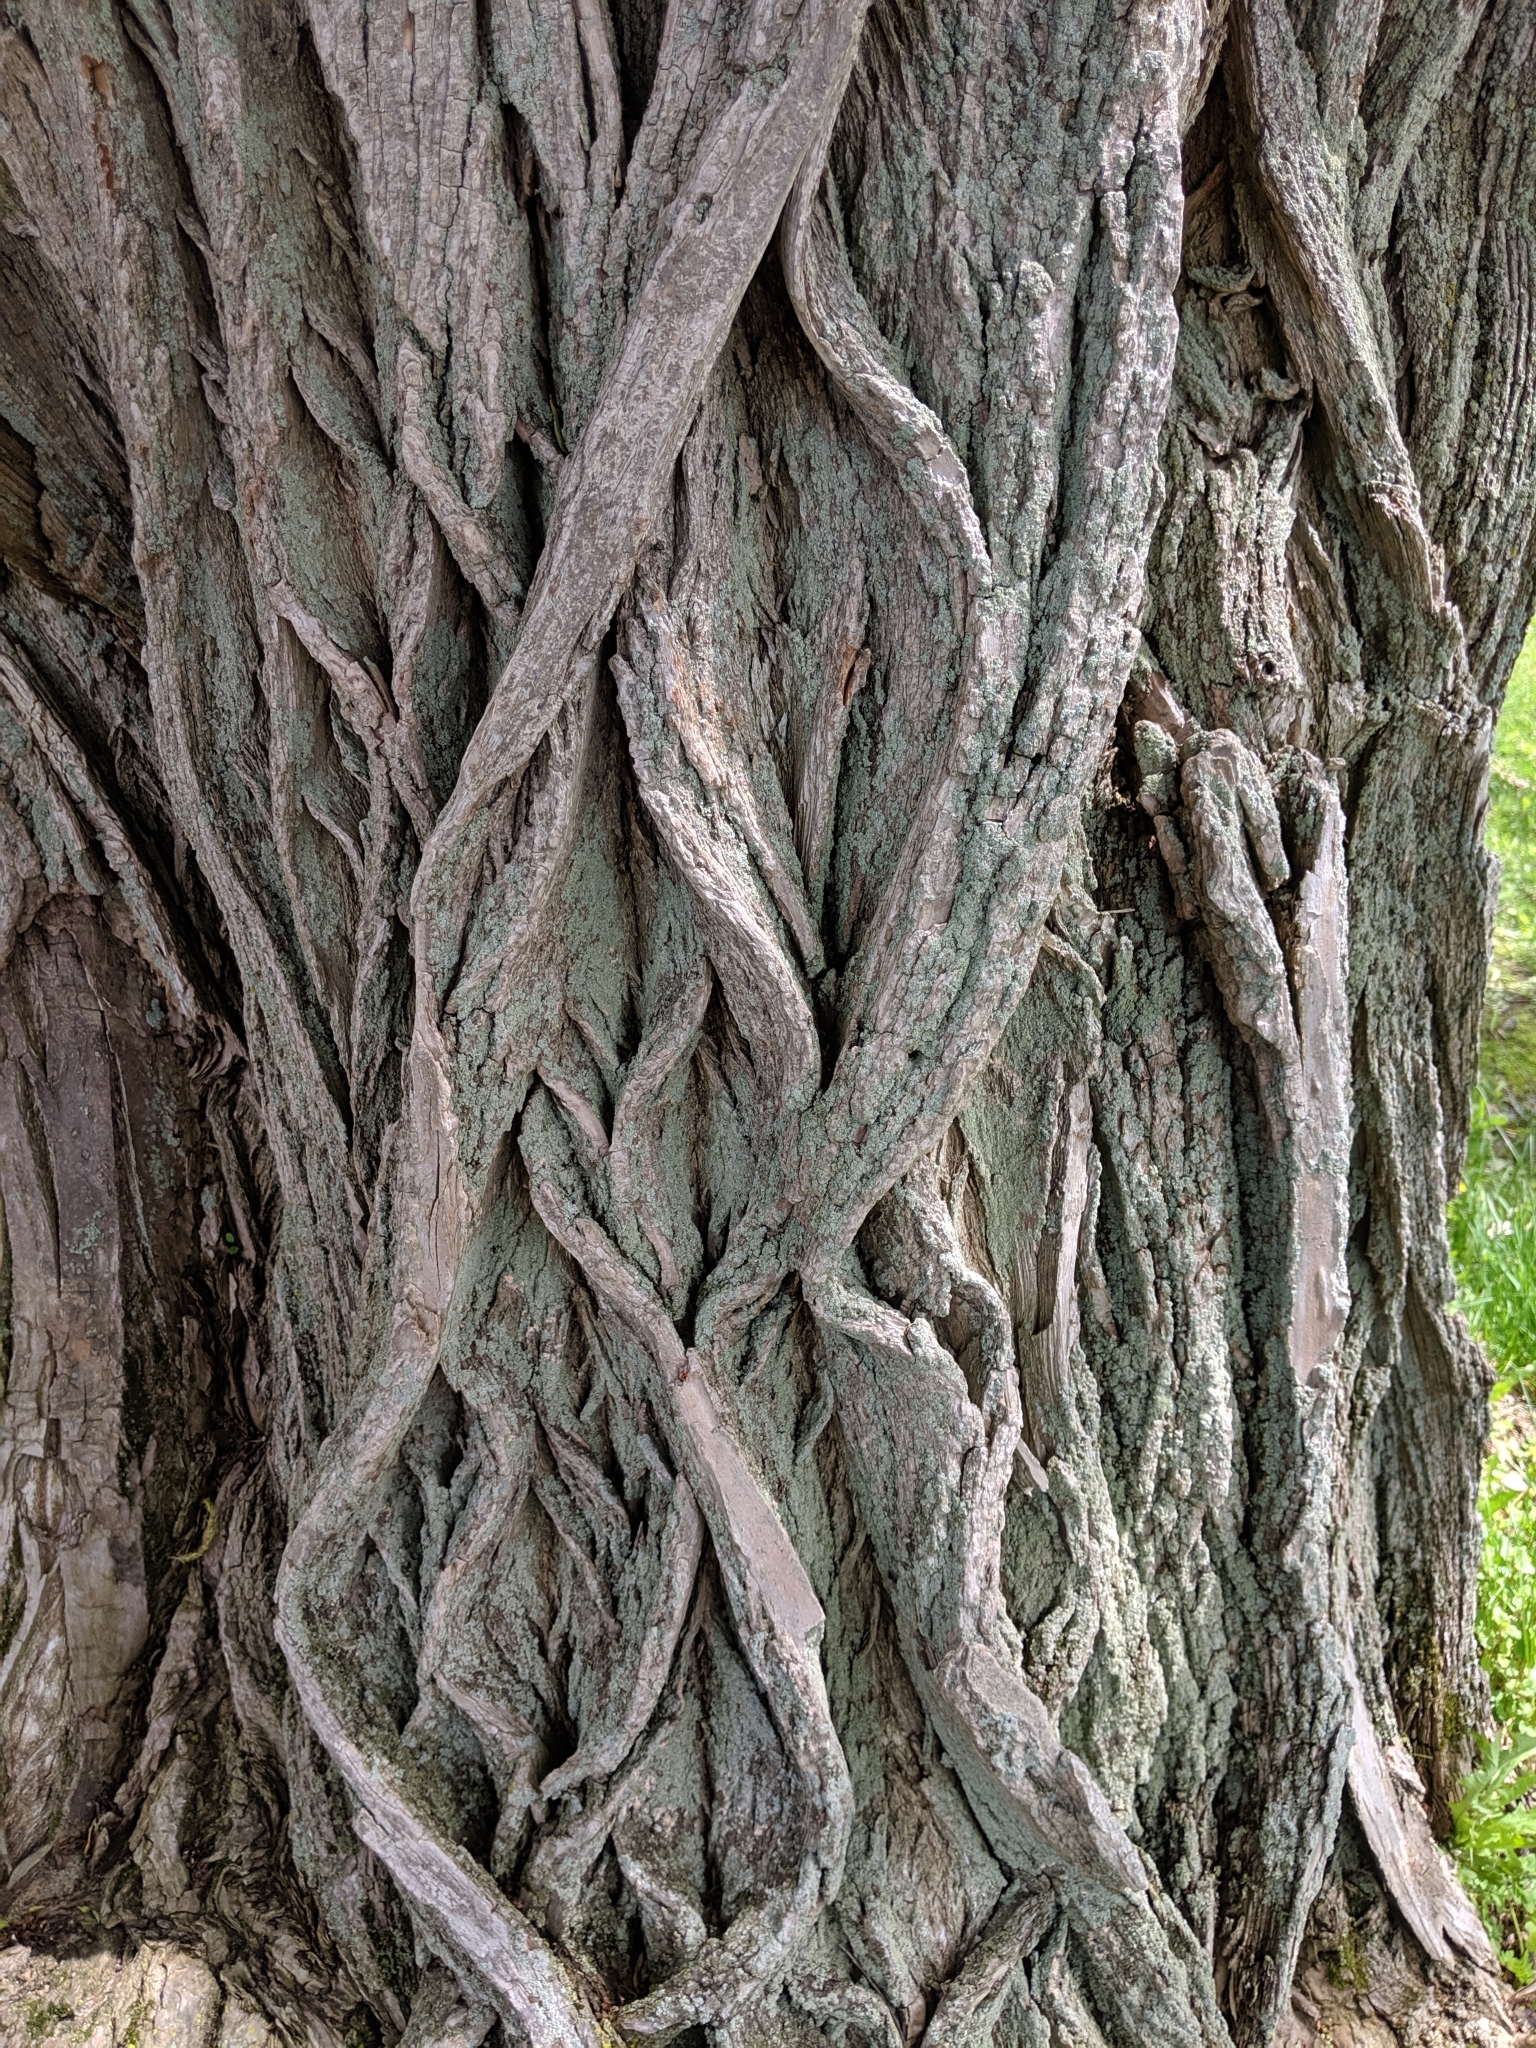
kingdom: Plantae
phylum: Tracheophyta
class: Magnoliopsida
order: Malpighiales
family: Salicaceae
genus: Salix
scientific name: Salix nigra
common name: Black willow
